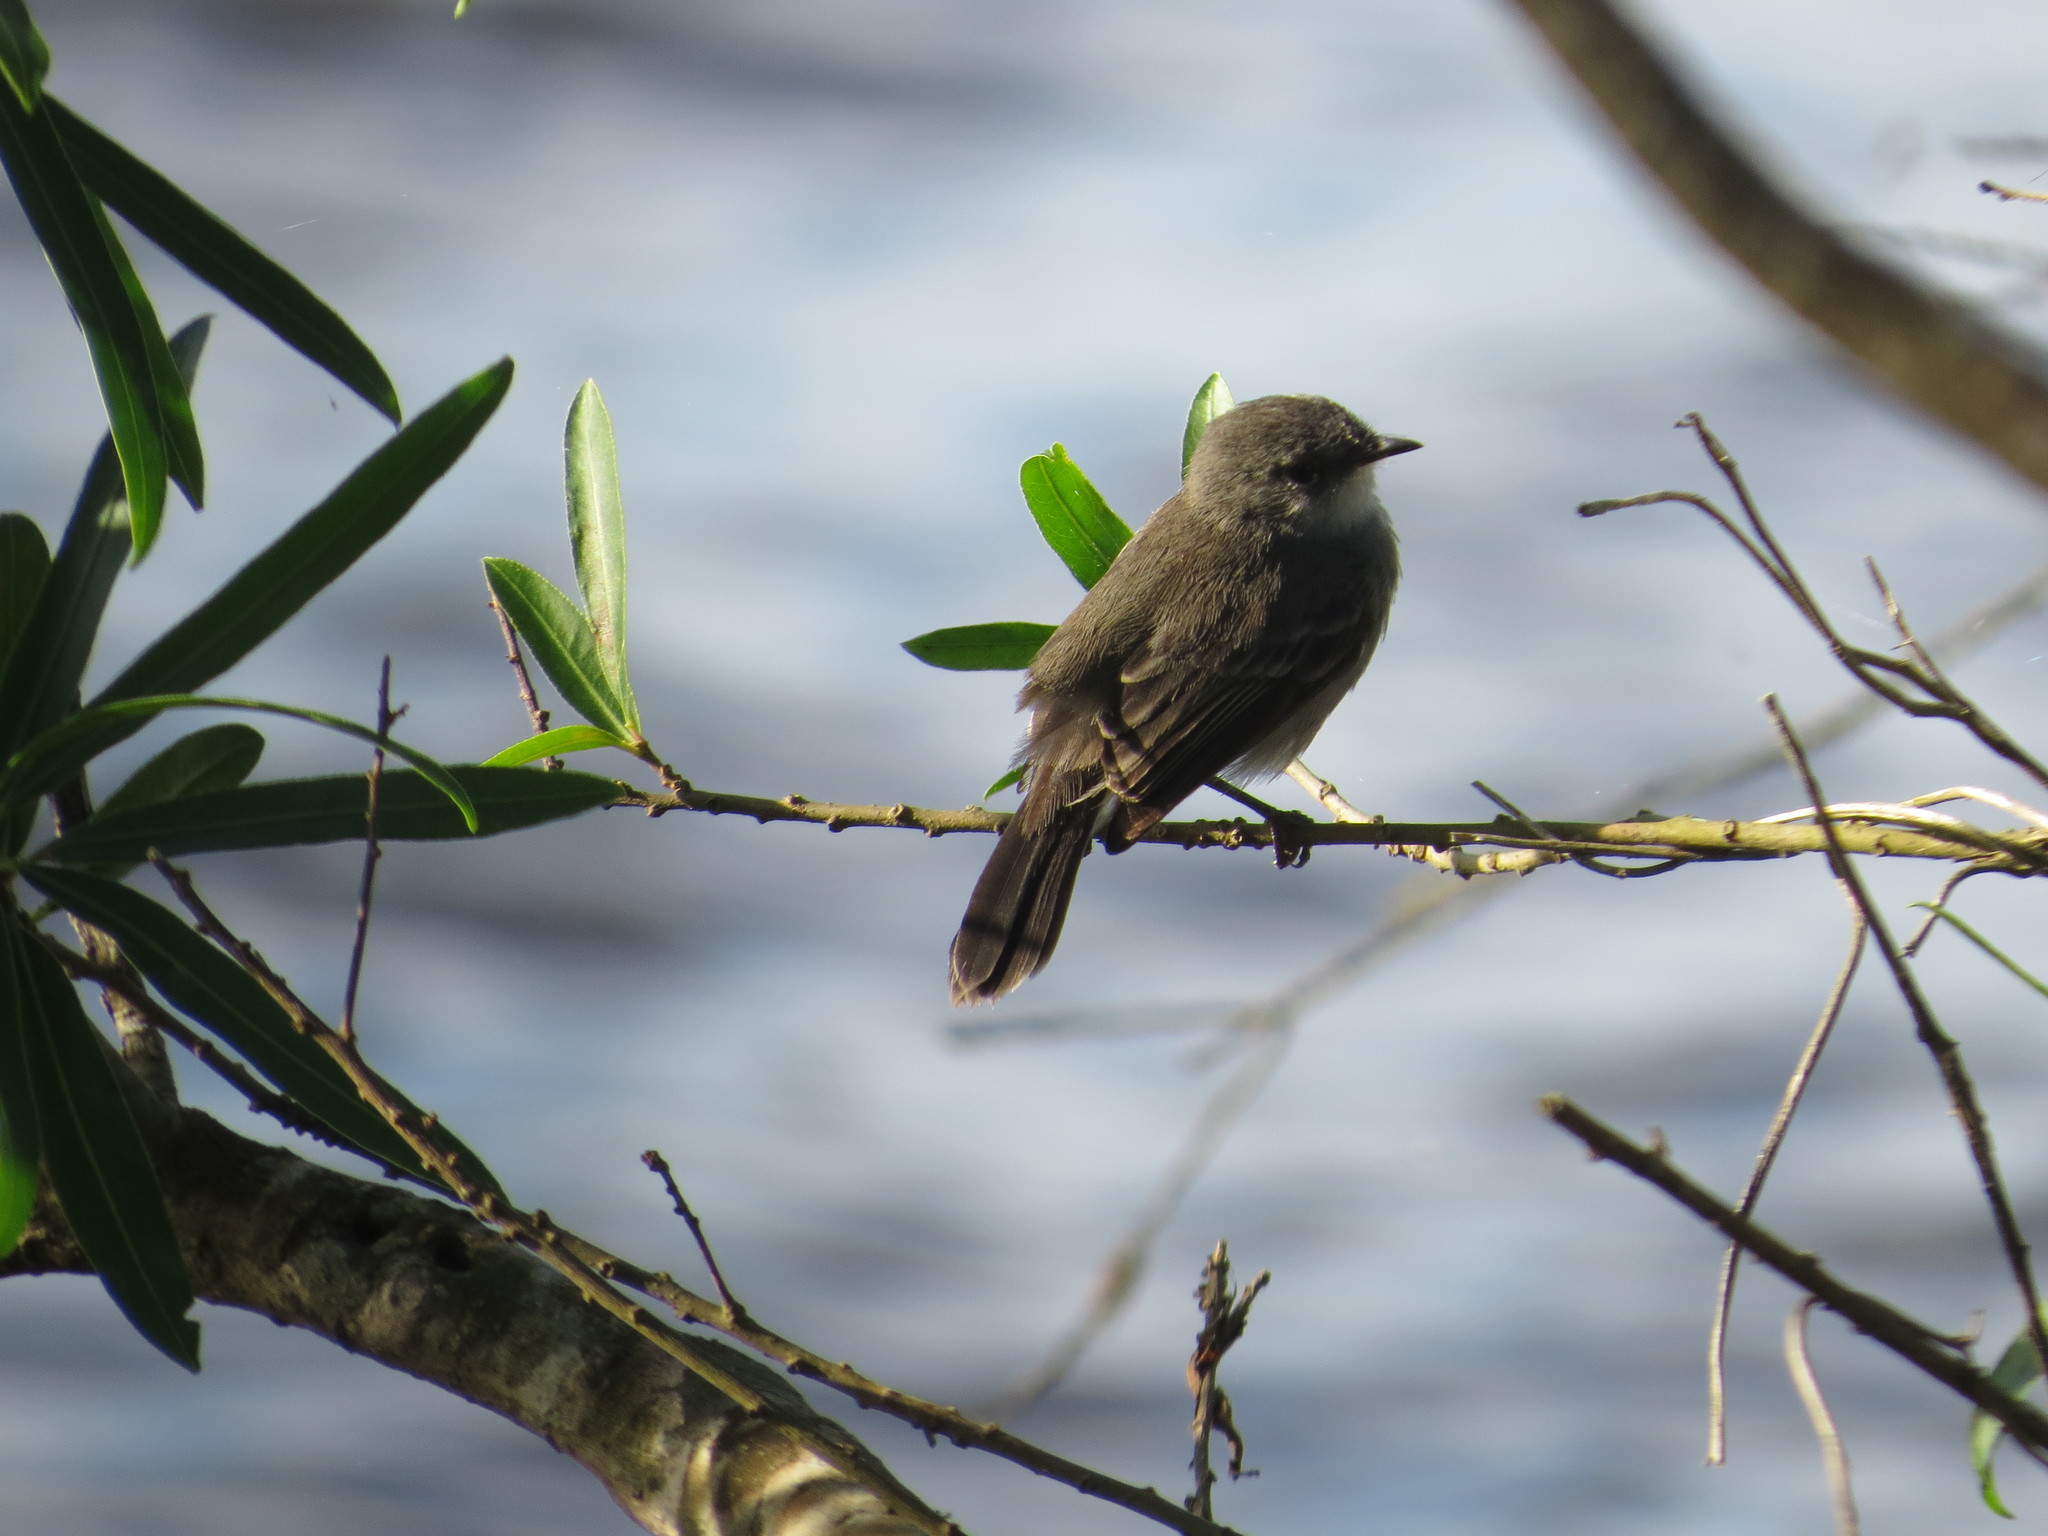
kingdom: Animalia
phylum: Chordata
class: Aves
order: Passeriformes
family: Tyrannidae
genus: Serpophaga
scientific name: Serpophaga nigricans
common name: Sooty tyrannulet
